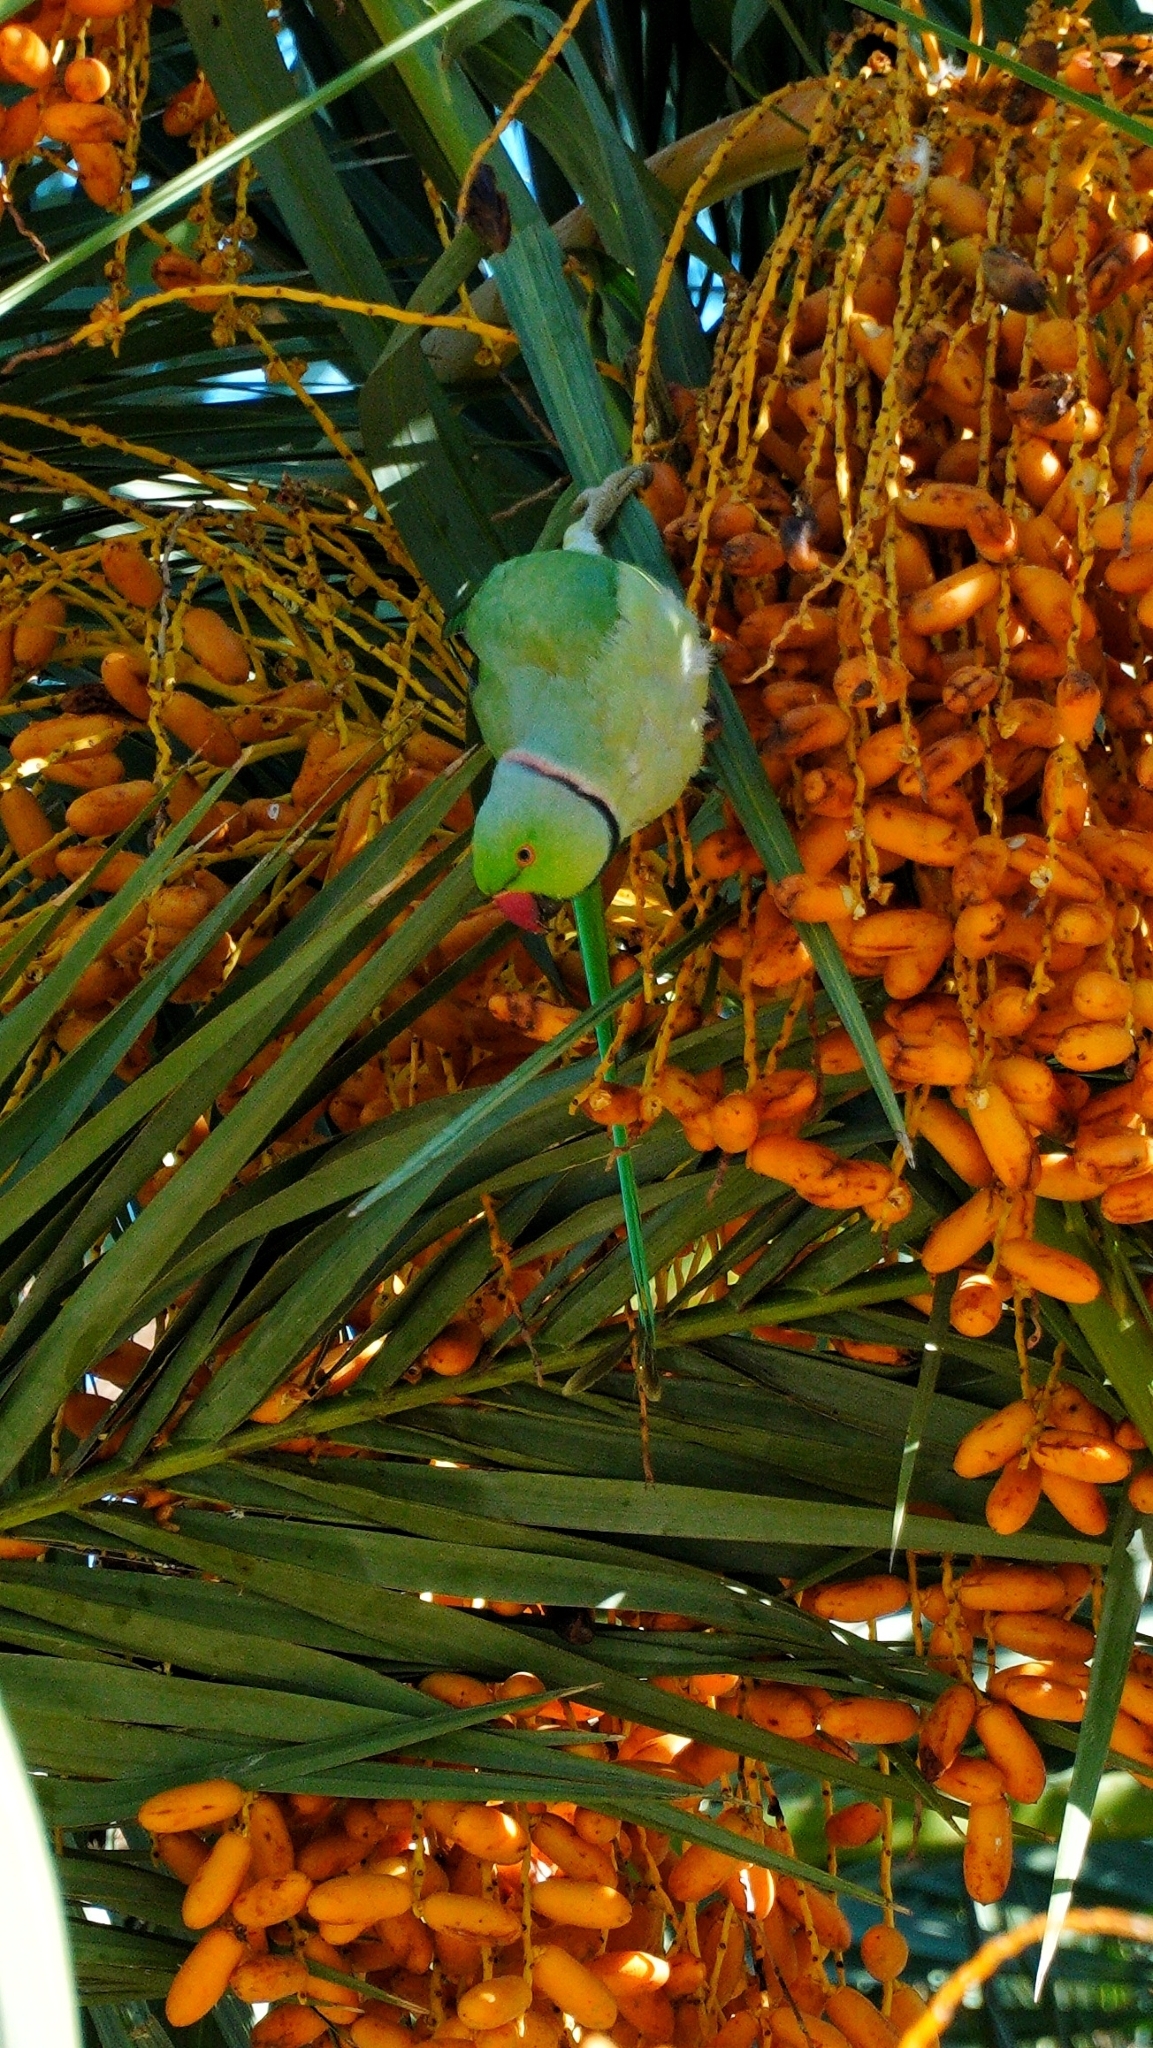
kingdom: Animalia
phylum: Chordata
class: Aves
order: Psittaciformes
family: Psittacidae
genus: Psittacula
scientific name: Psittacula krameri
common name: Rose-ringed parakeet
